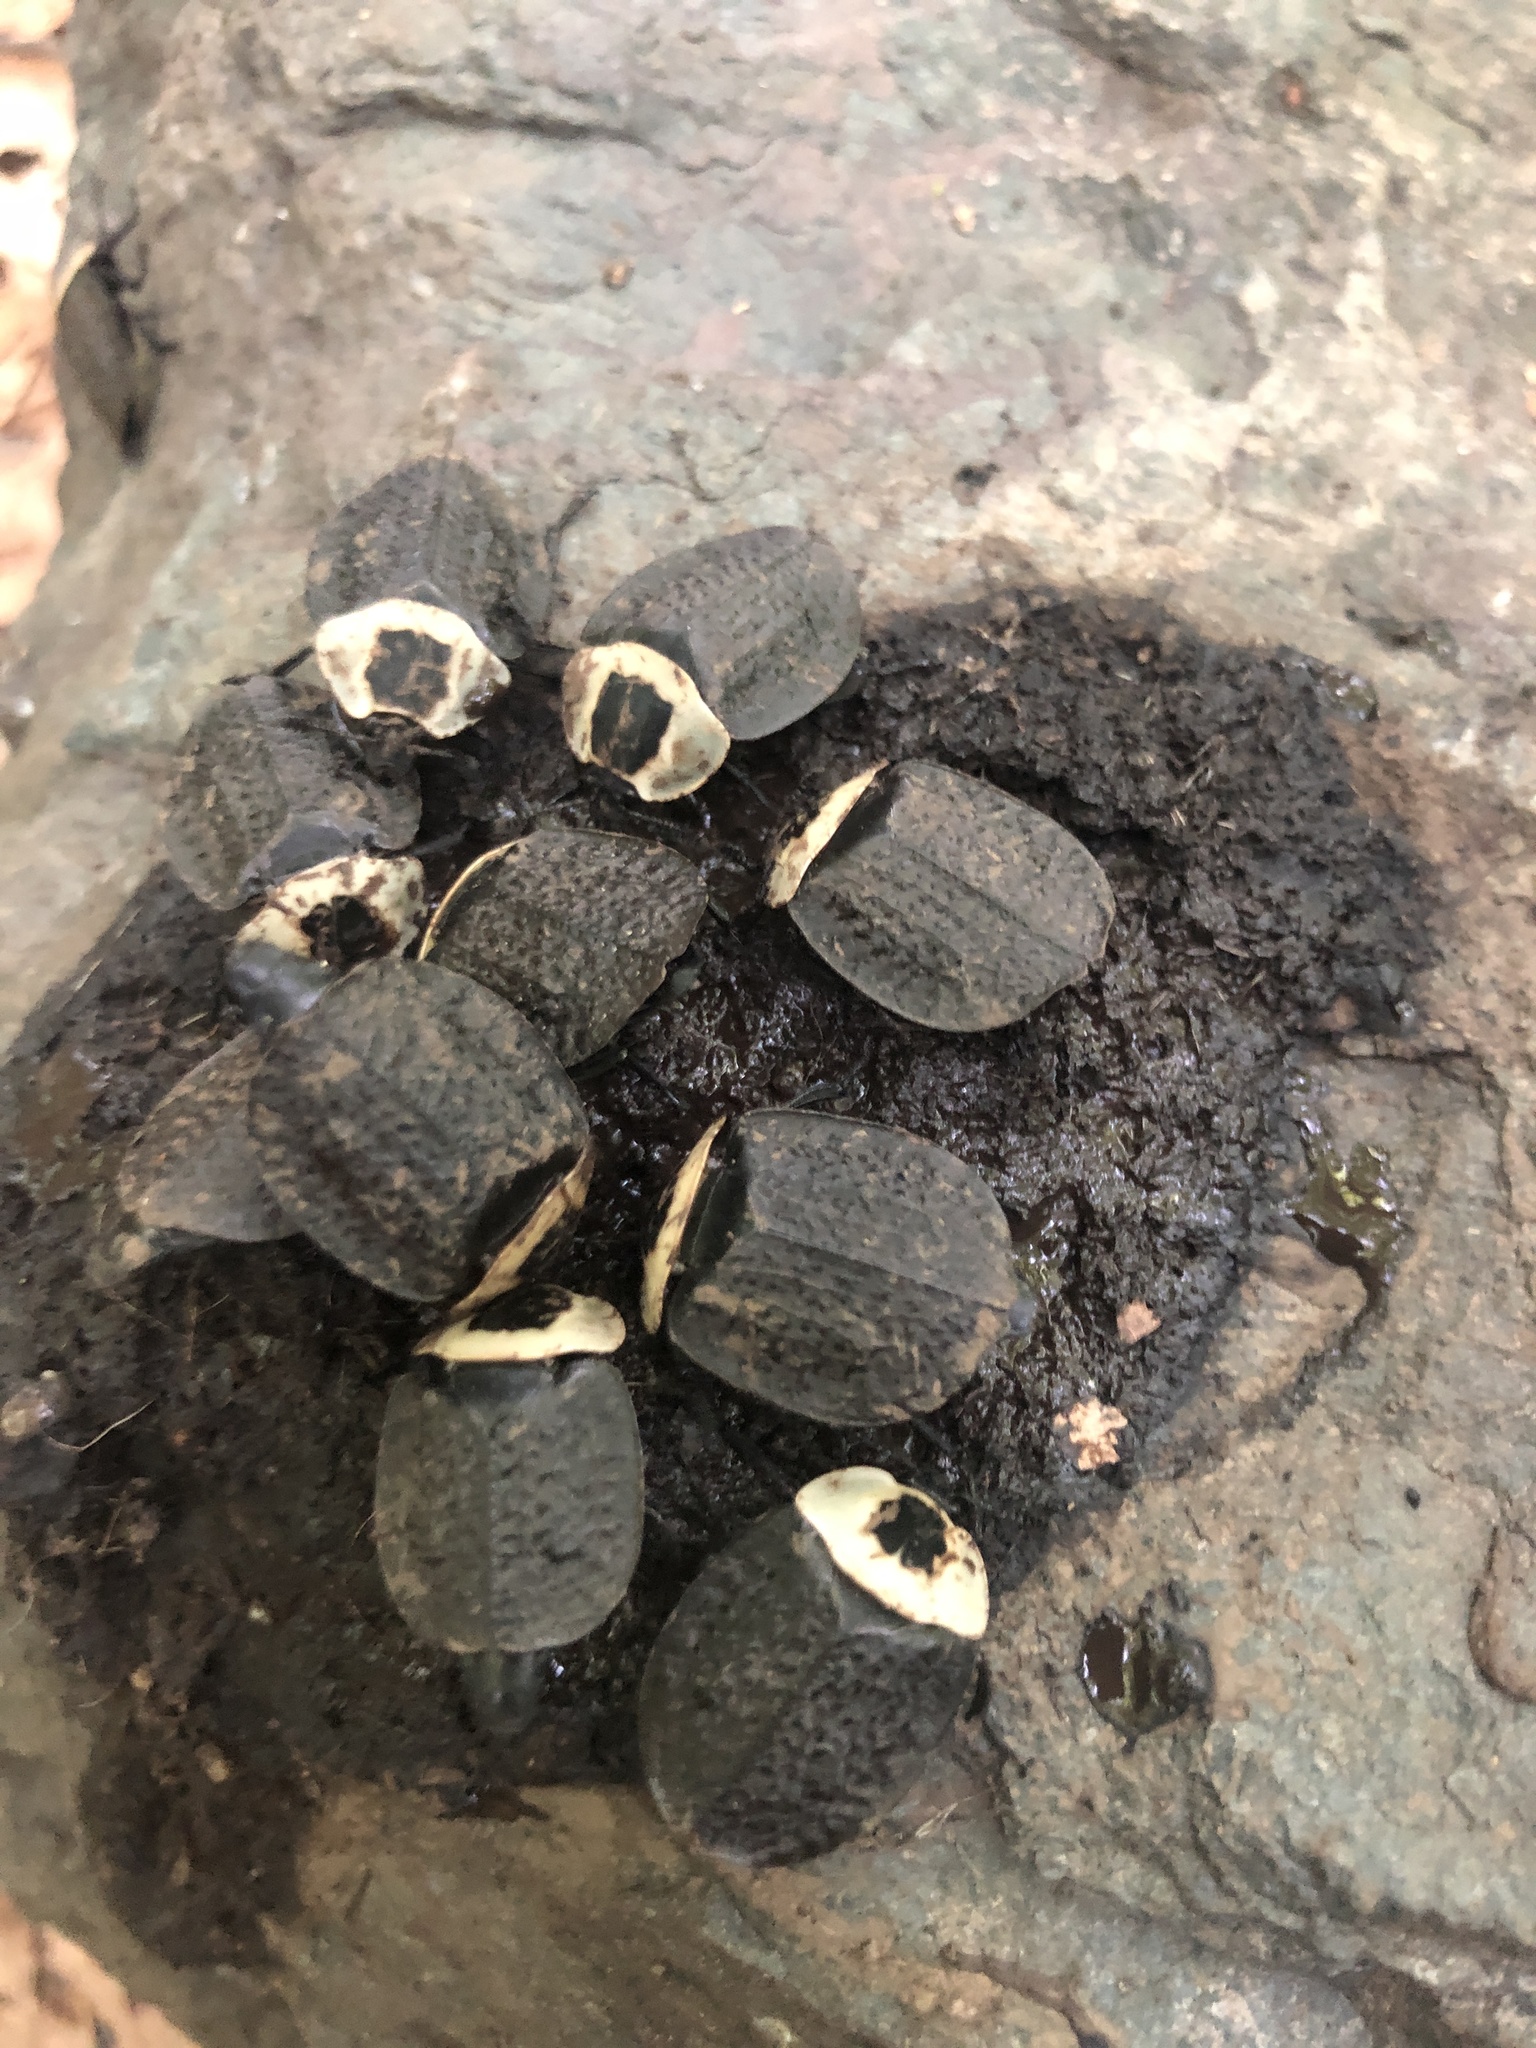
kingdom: Animalia
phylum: Arthropoda
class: Insecta
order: Coleoptera
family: Staphylinidae
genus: Necrophila
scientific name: Necrophila americana
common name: American carrion beetle
